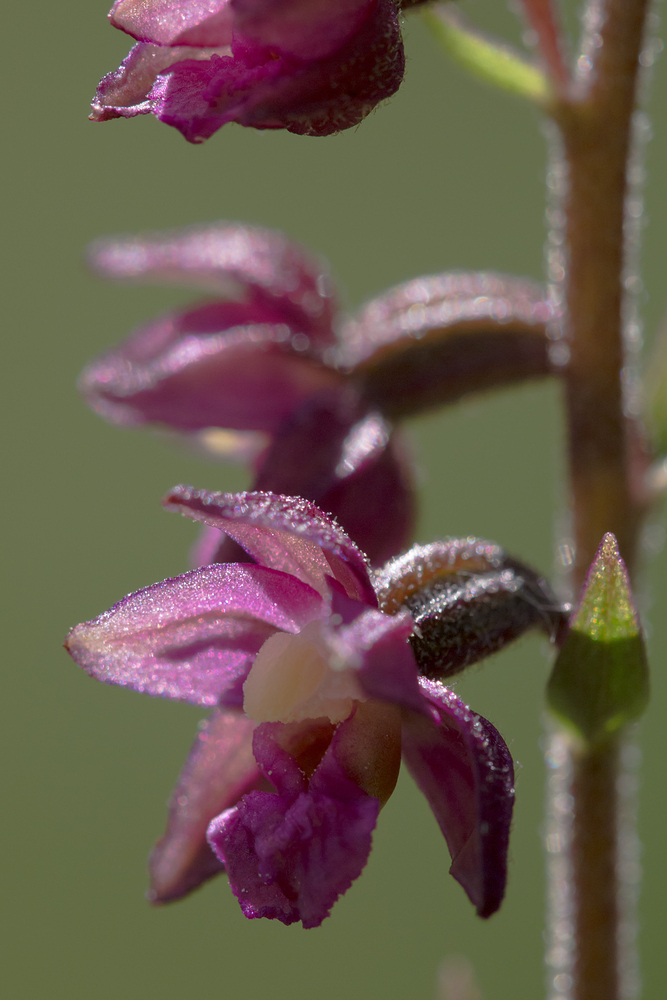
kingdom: Plantae
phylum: Tracheophyta
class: Liliopsida
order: Asparagales
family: Orchidaceae
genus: Epipactis
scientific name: Epipactis atrorubens
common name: Dark-red helleborine
